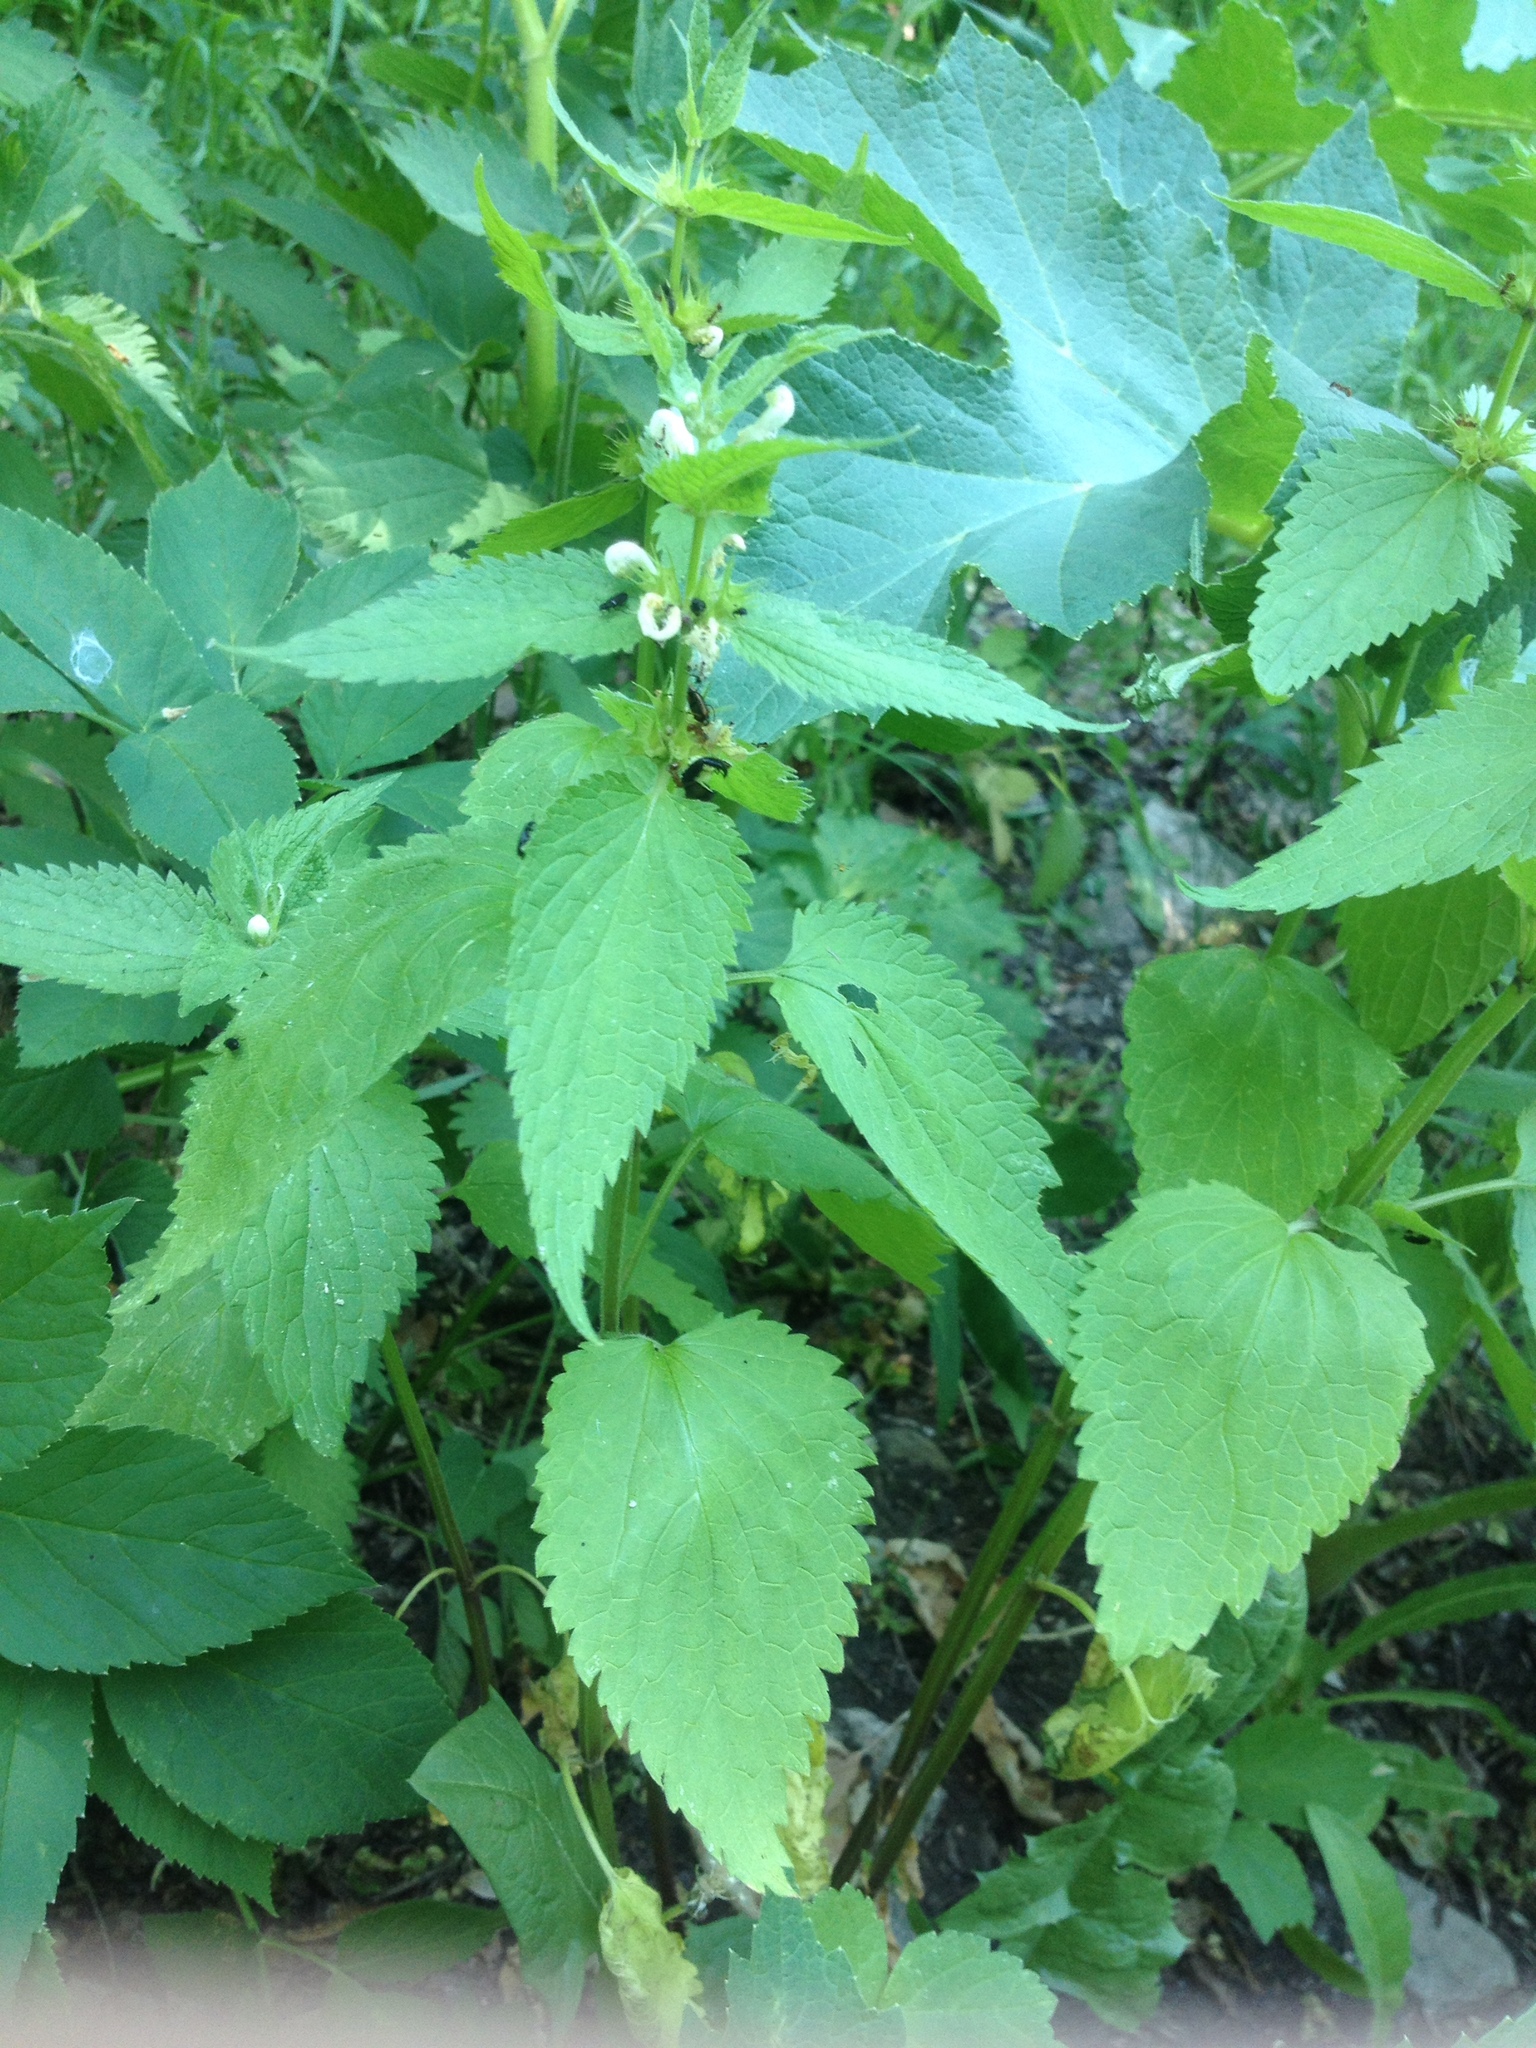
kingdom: Plantae
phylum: Tracheophyta
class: Magnoliopsida
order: Lamiales
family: Lamiaceae
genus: Lamium
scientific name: Lamium album
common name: White dead-nettle
